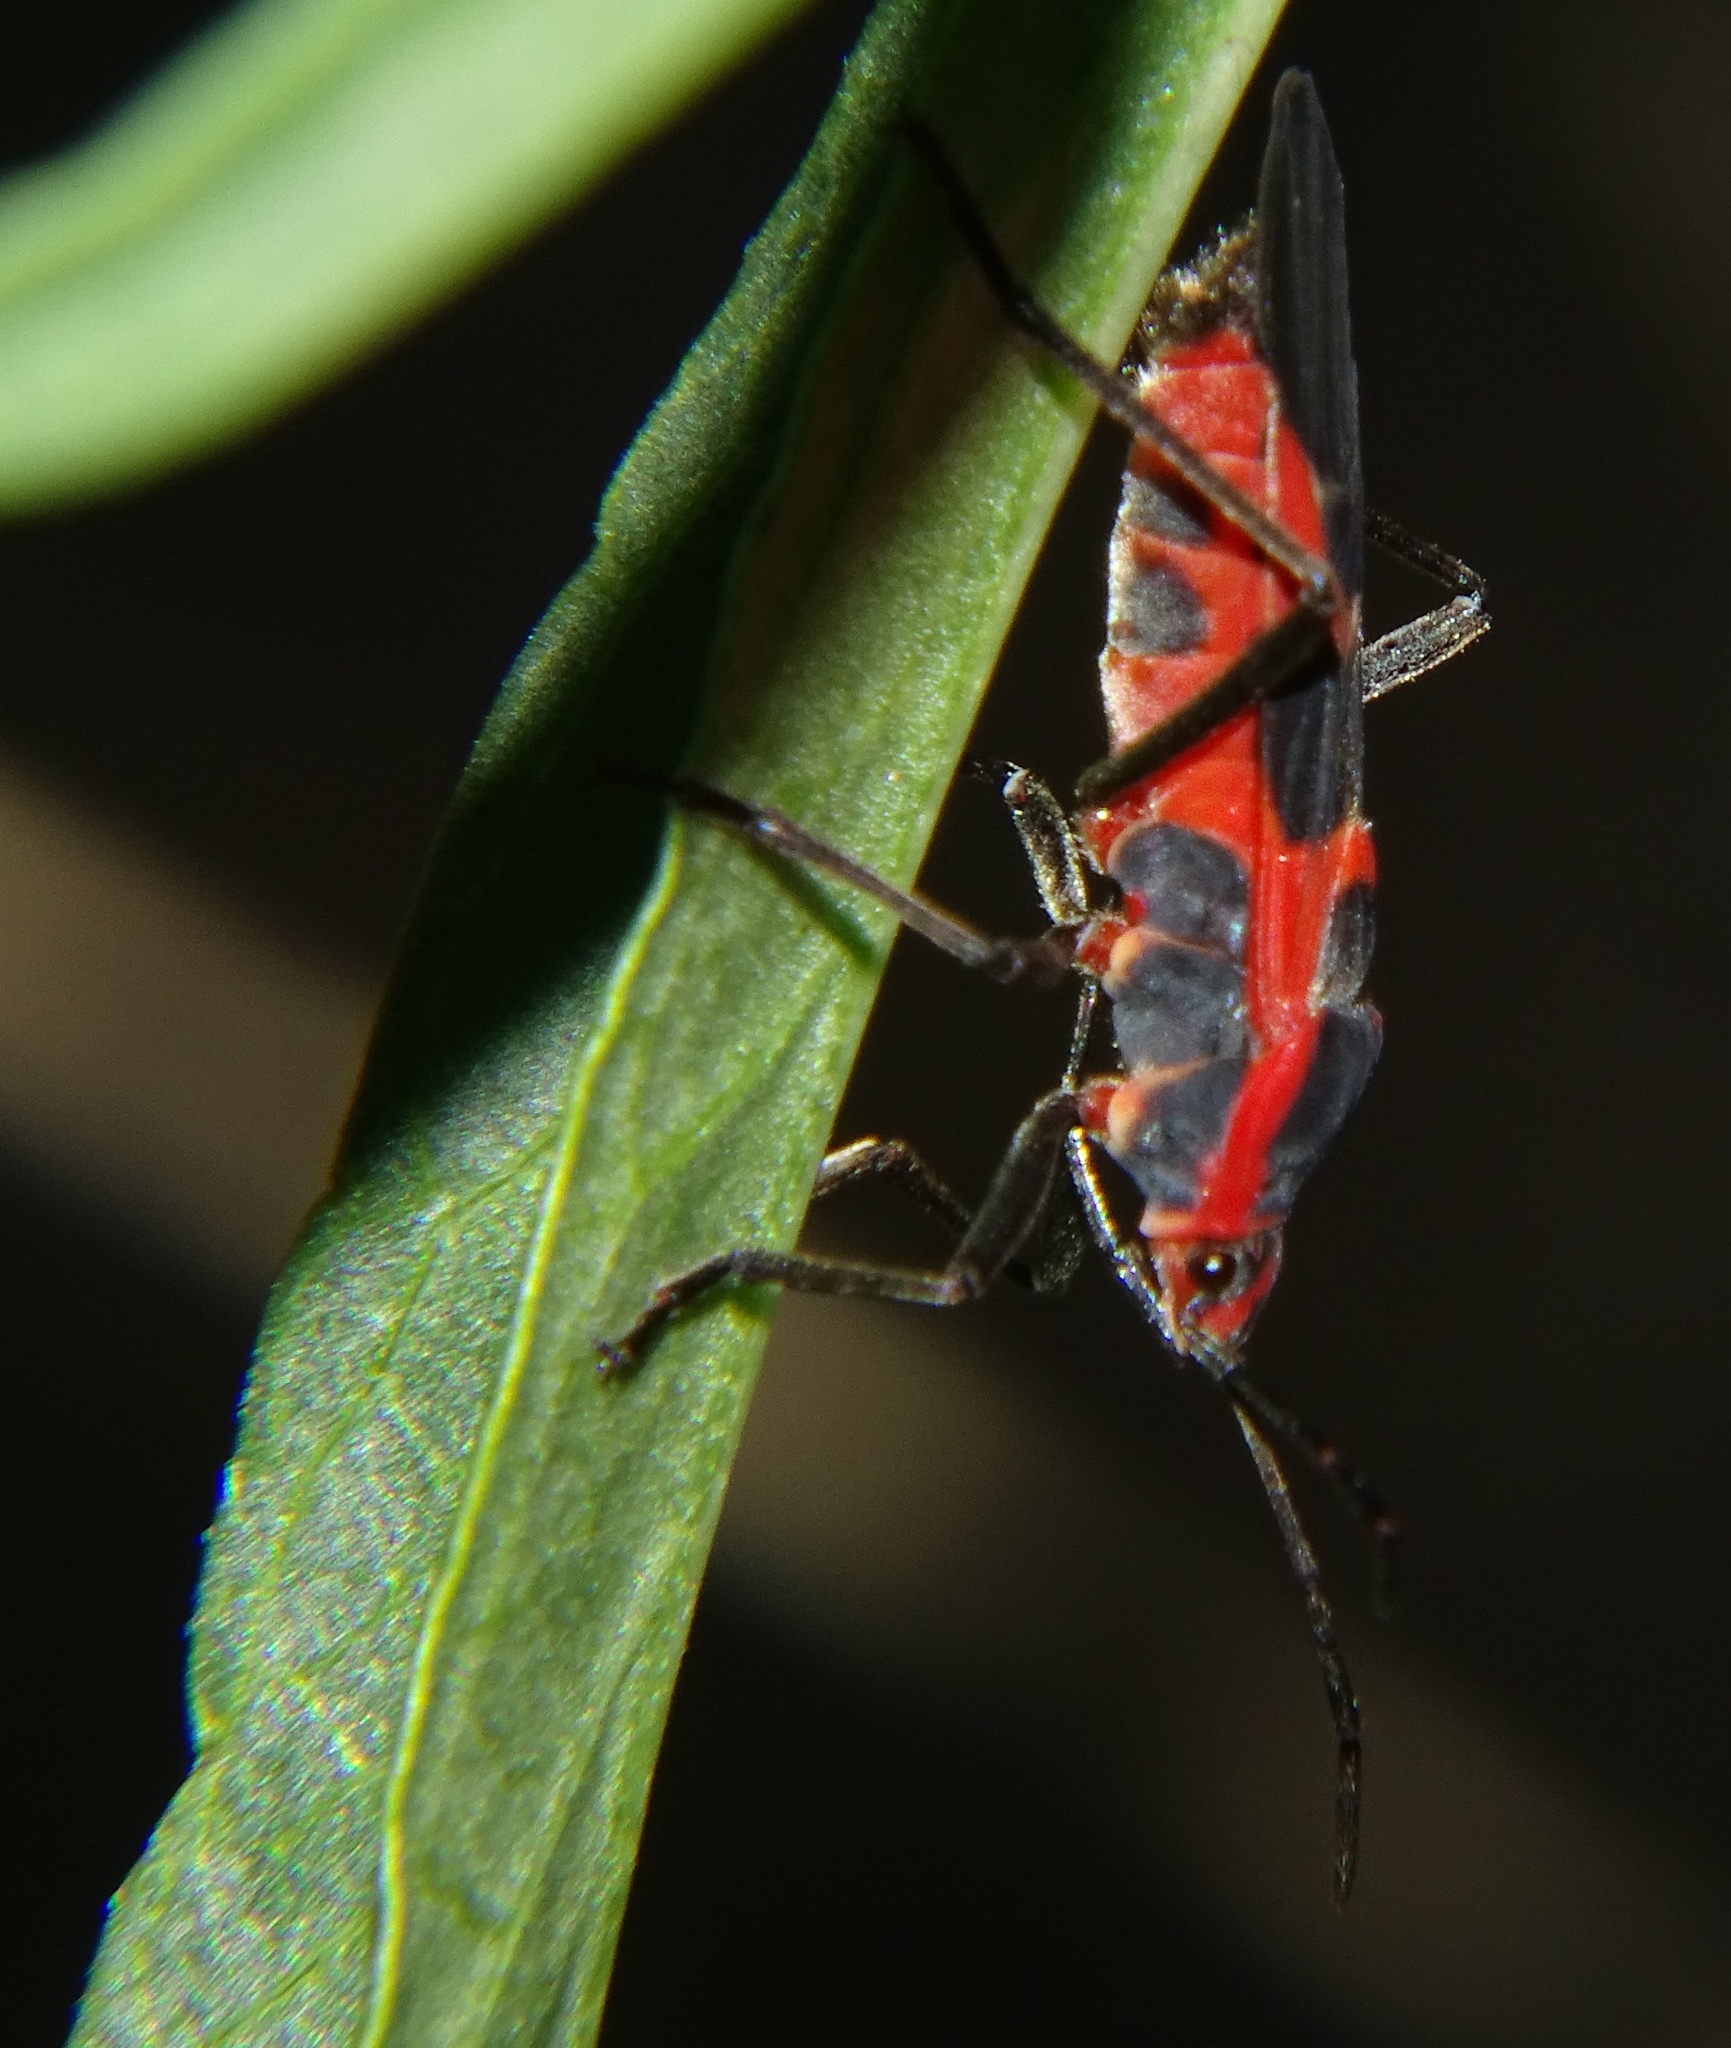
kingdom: Animalia
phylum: Arthropoda
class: Insecta
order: Hemiptera
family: Lygaeidae
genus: Oncopeltus
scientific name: Oncopeltus fasciatus
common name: Large milkweed bug
